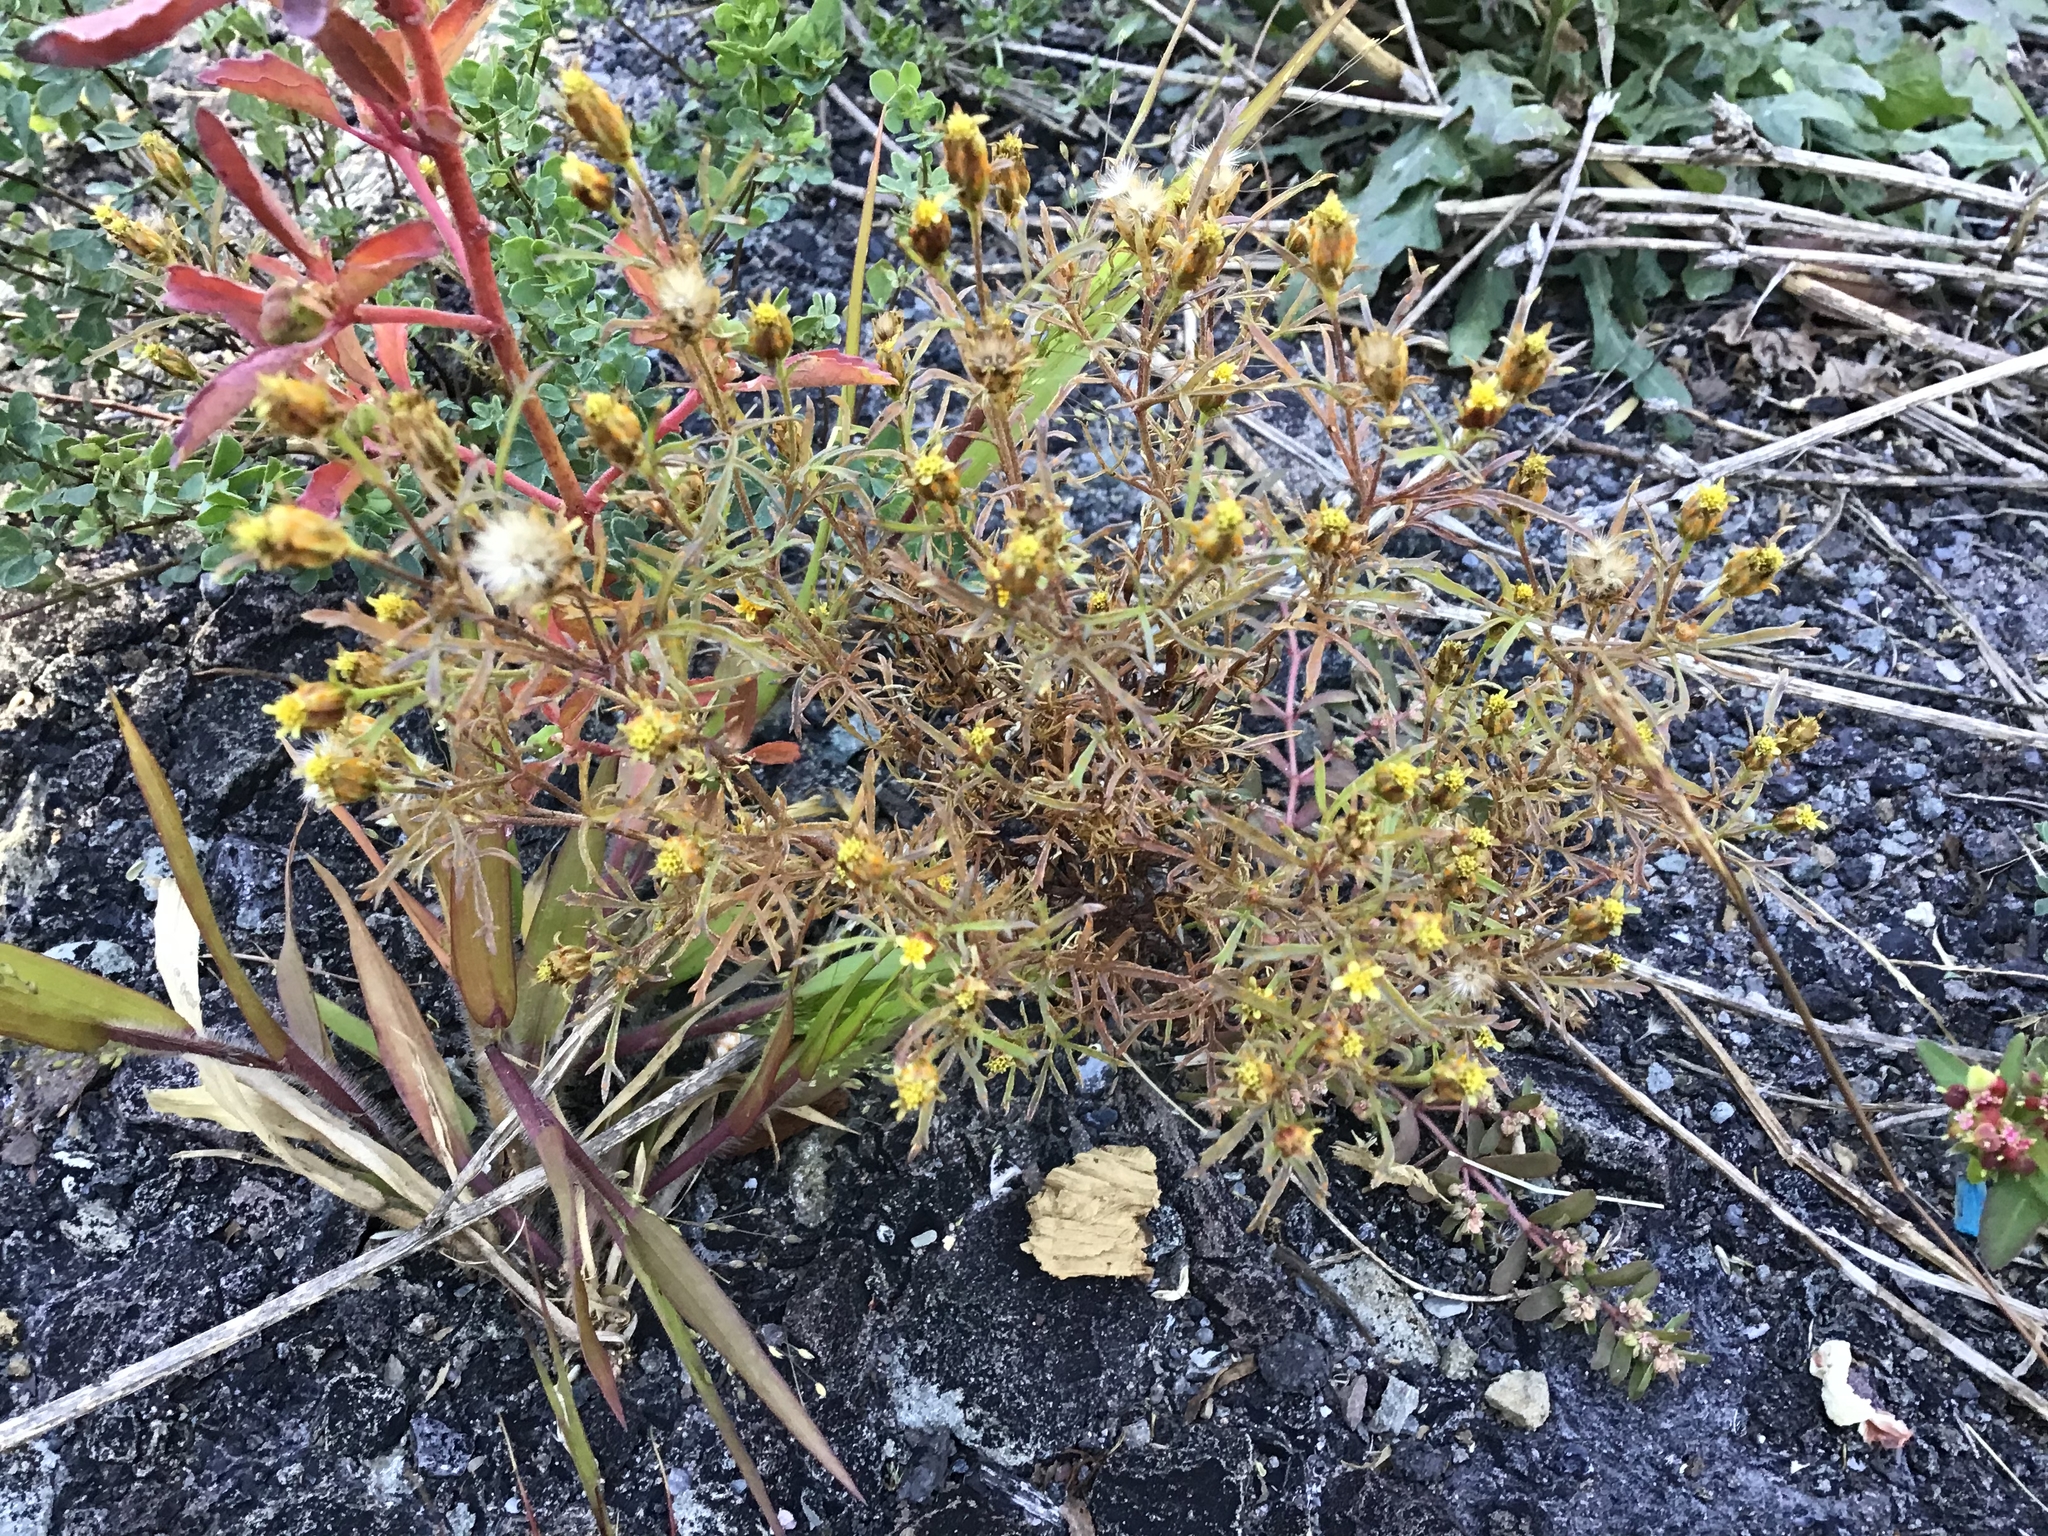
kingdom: Plantae
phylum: Tracheophyta
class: Magnoliopsida
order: Asterales
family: Asteraceae
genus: Dyssodia
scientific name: Dyssodia papposa
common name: Dogweed
